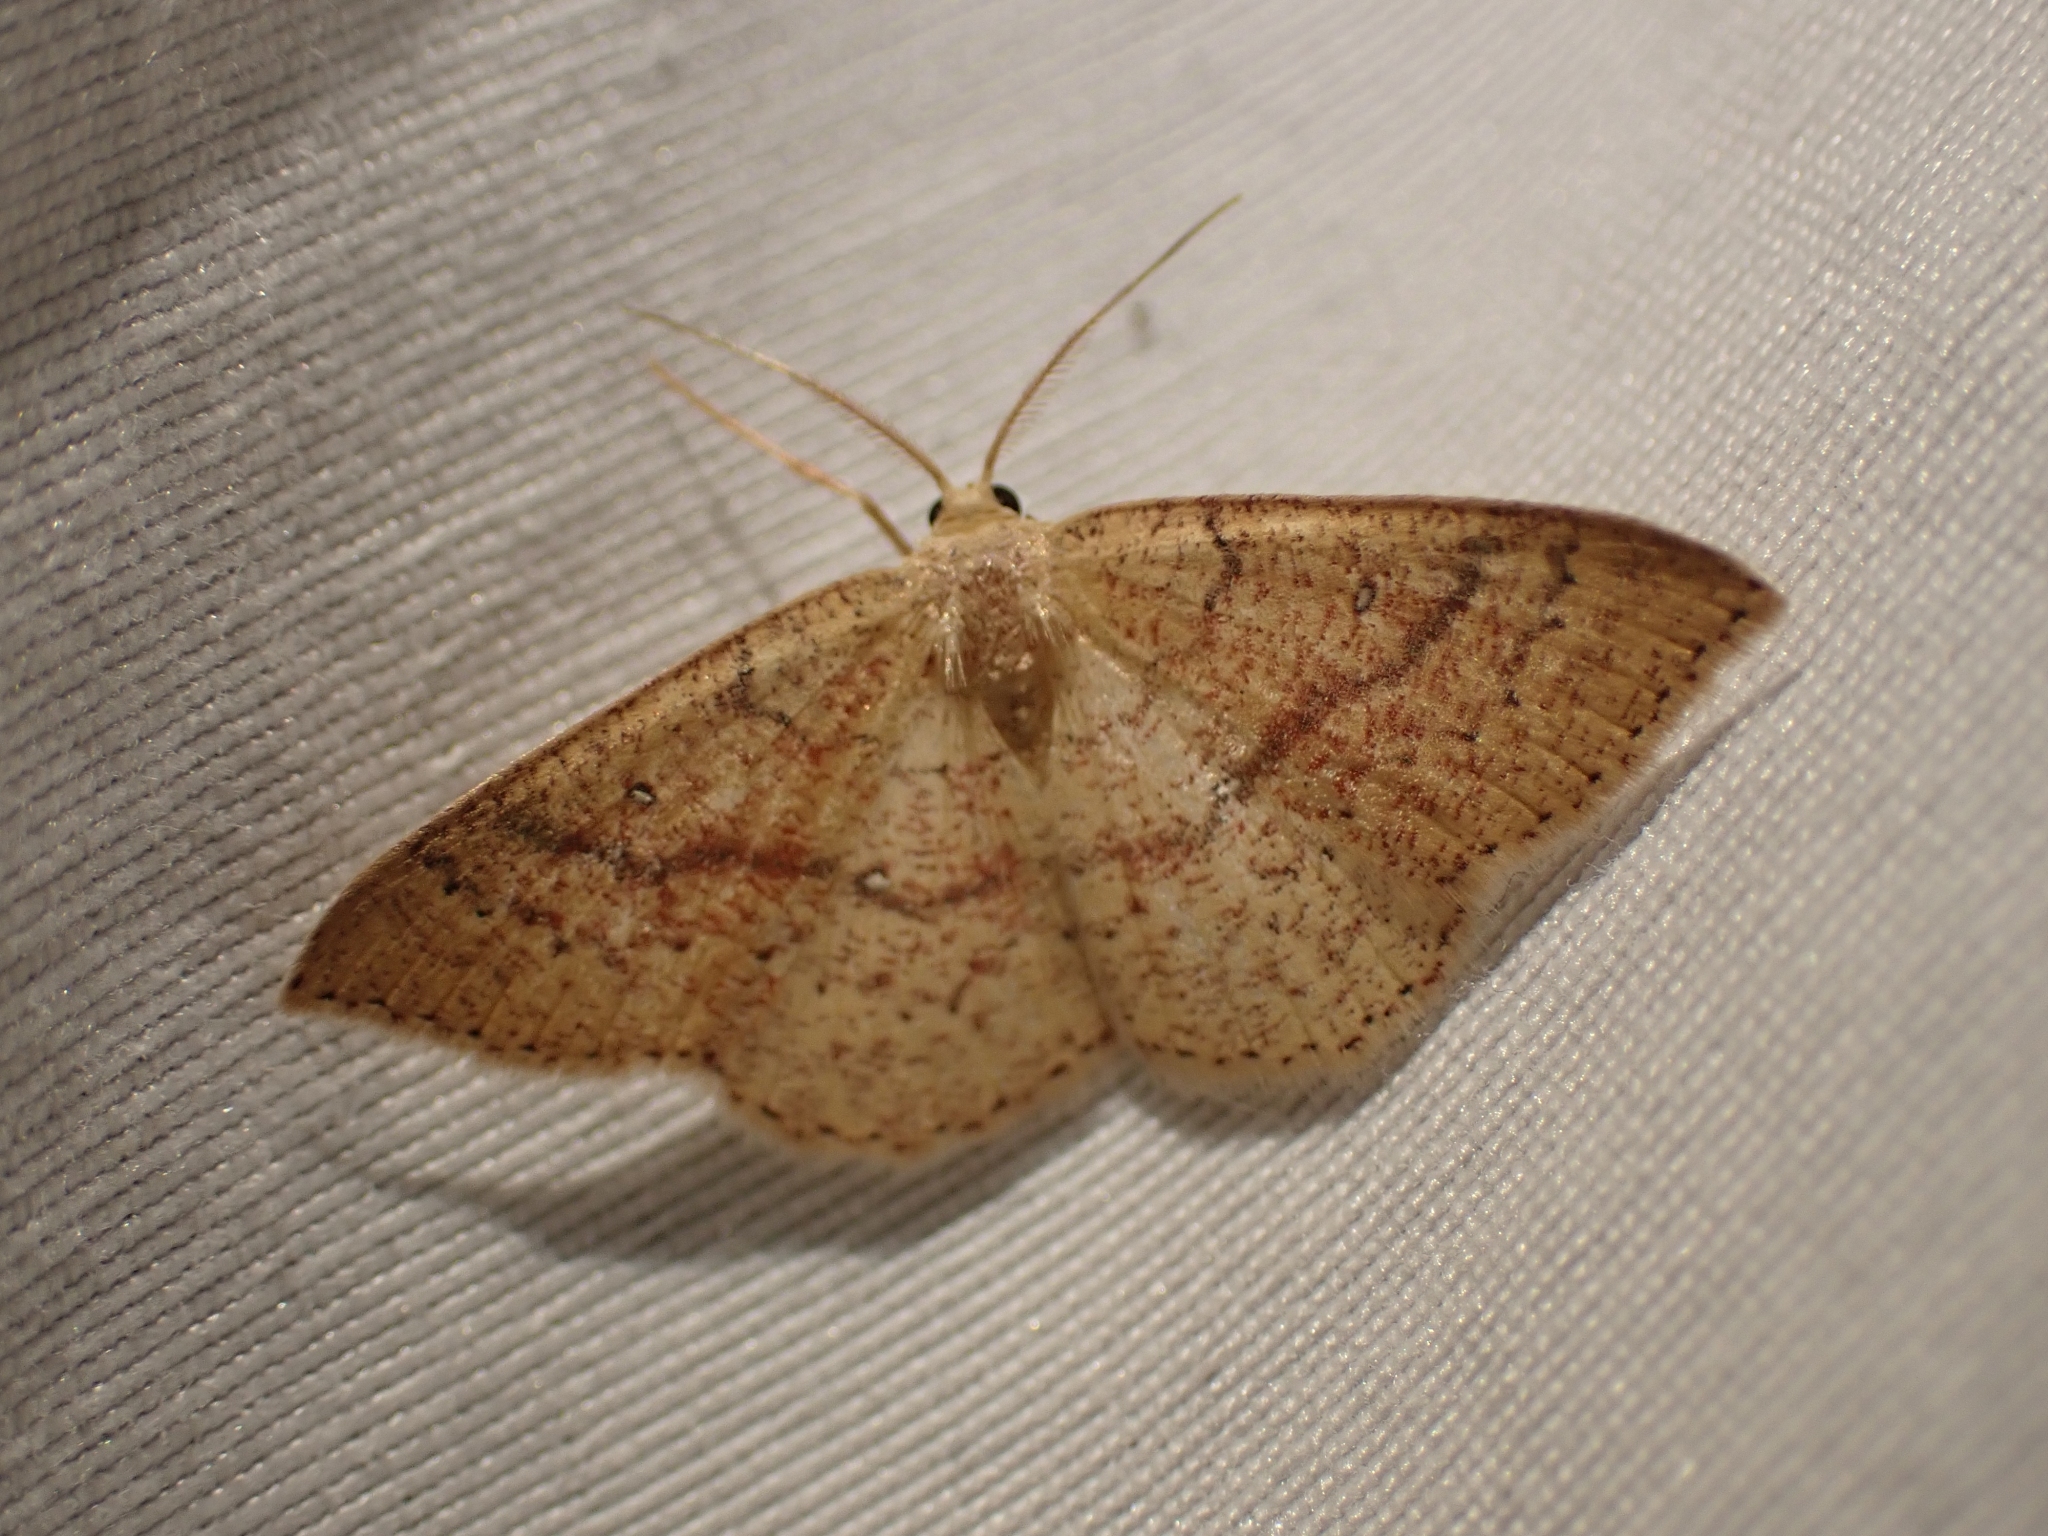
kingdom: Animalia
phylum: Arthropoda
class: Insecta
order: Lepidoptera
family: Geometridae
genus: Cyclophora
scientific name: Cyclophora dataria
